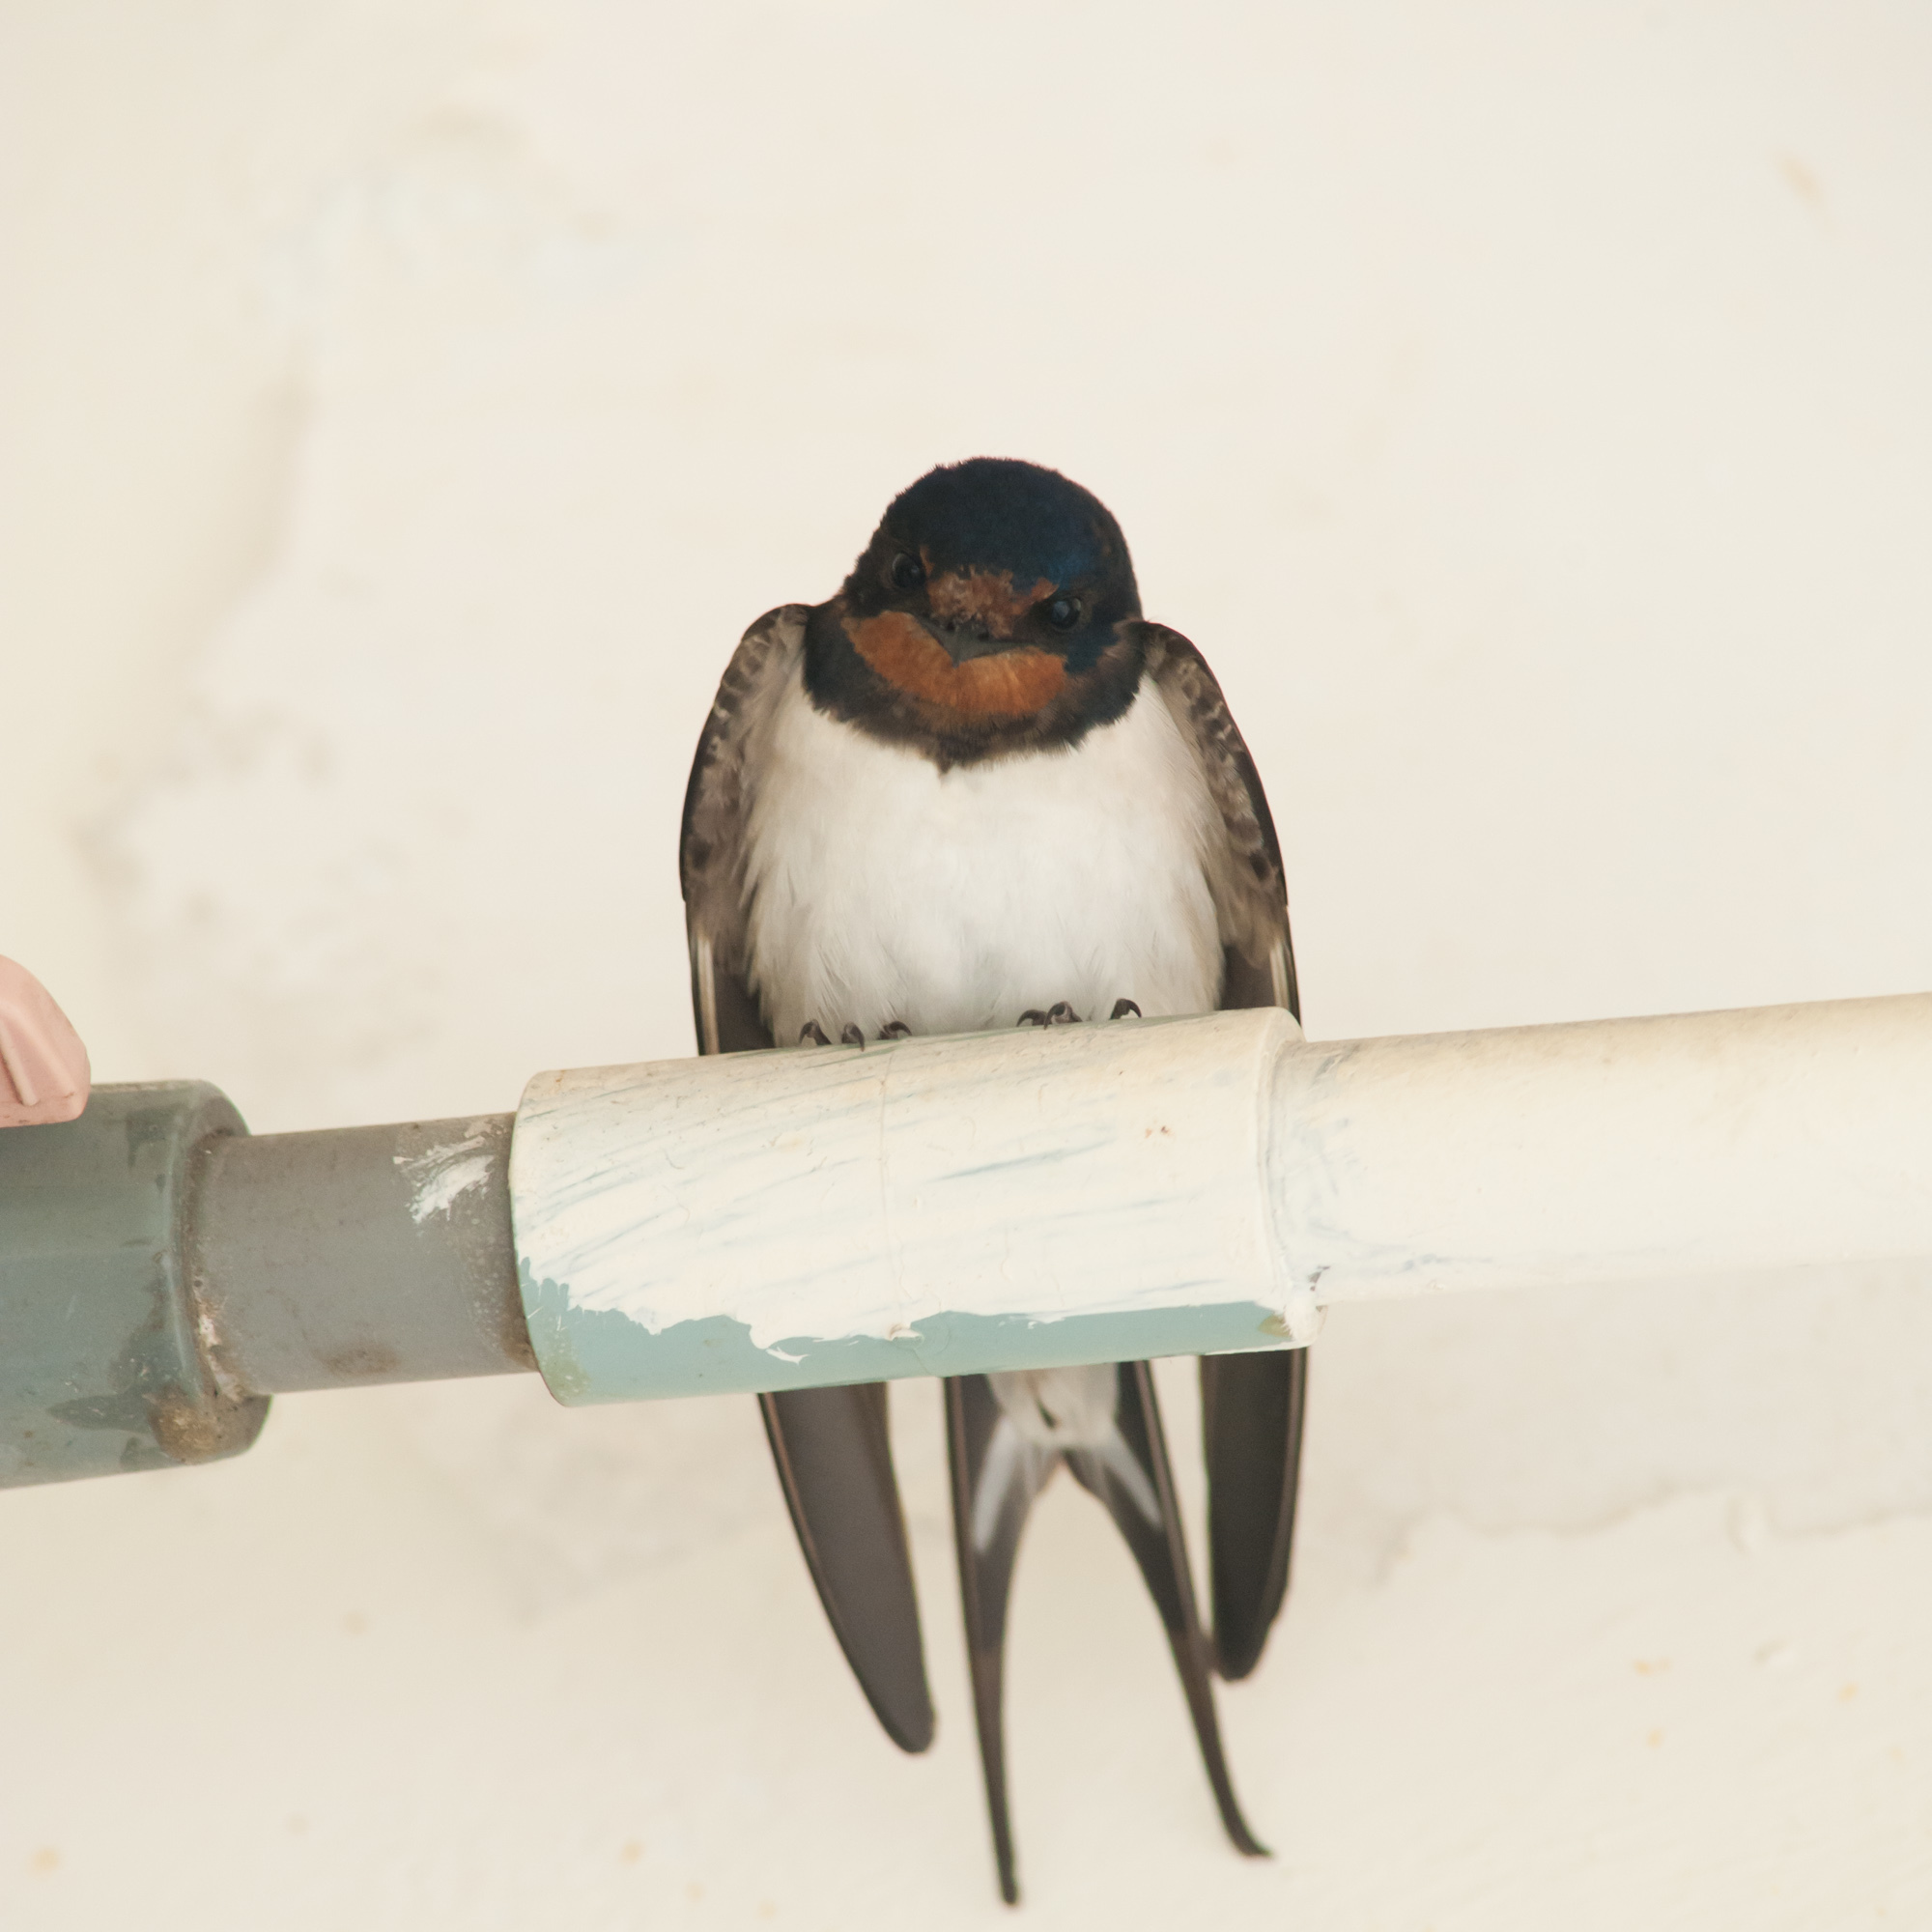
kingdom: Animalia
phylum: Chordata
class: Aves
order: Passeriformes
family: Hirundinidae
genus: Hirundo
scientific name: Hirundo rustica
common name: Barn swallow
